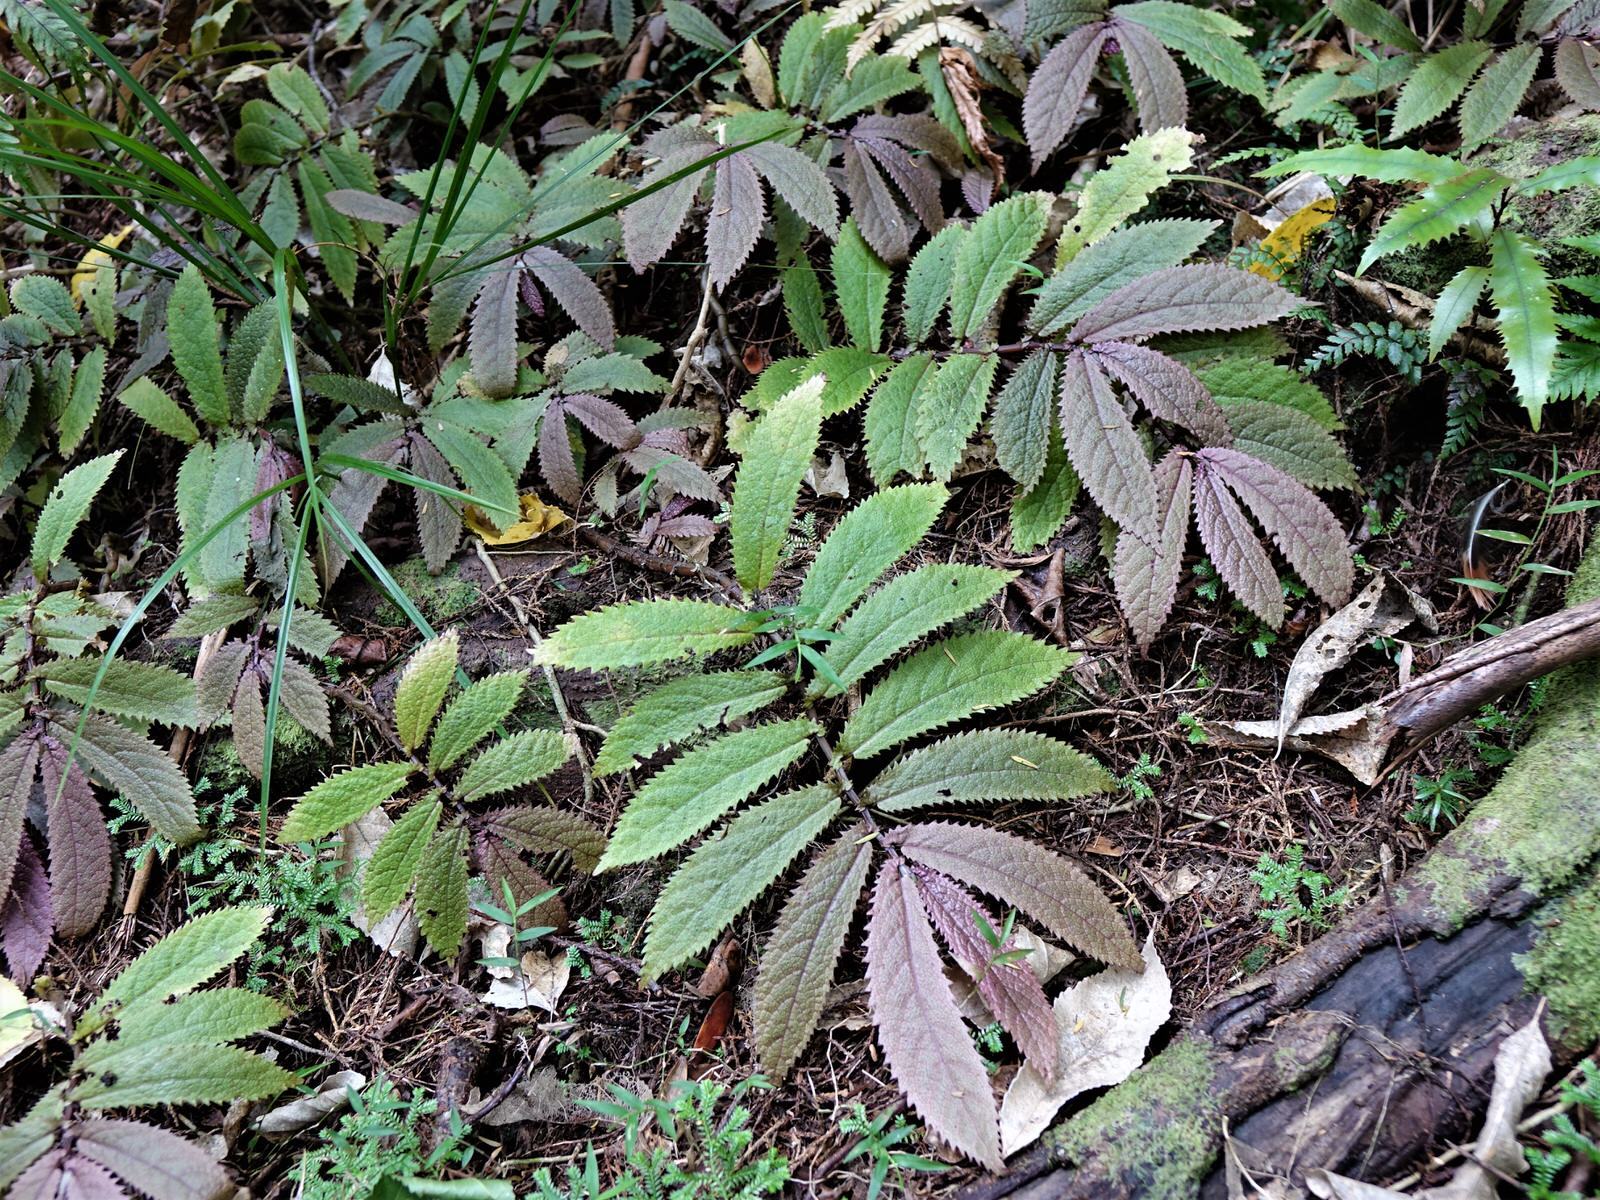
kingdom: Plantae
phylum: Tracheophyta
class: Magnoliopsida
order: Rosales
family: Urticaceae
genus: Elatostema
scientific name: Elatostema rugosum
